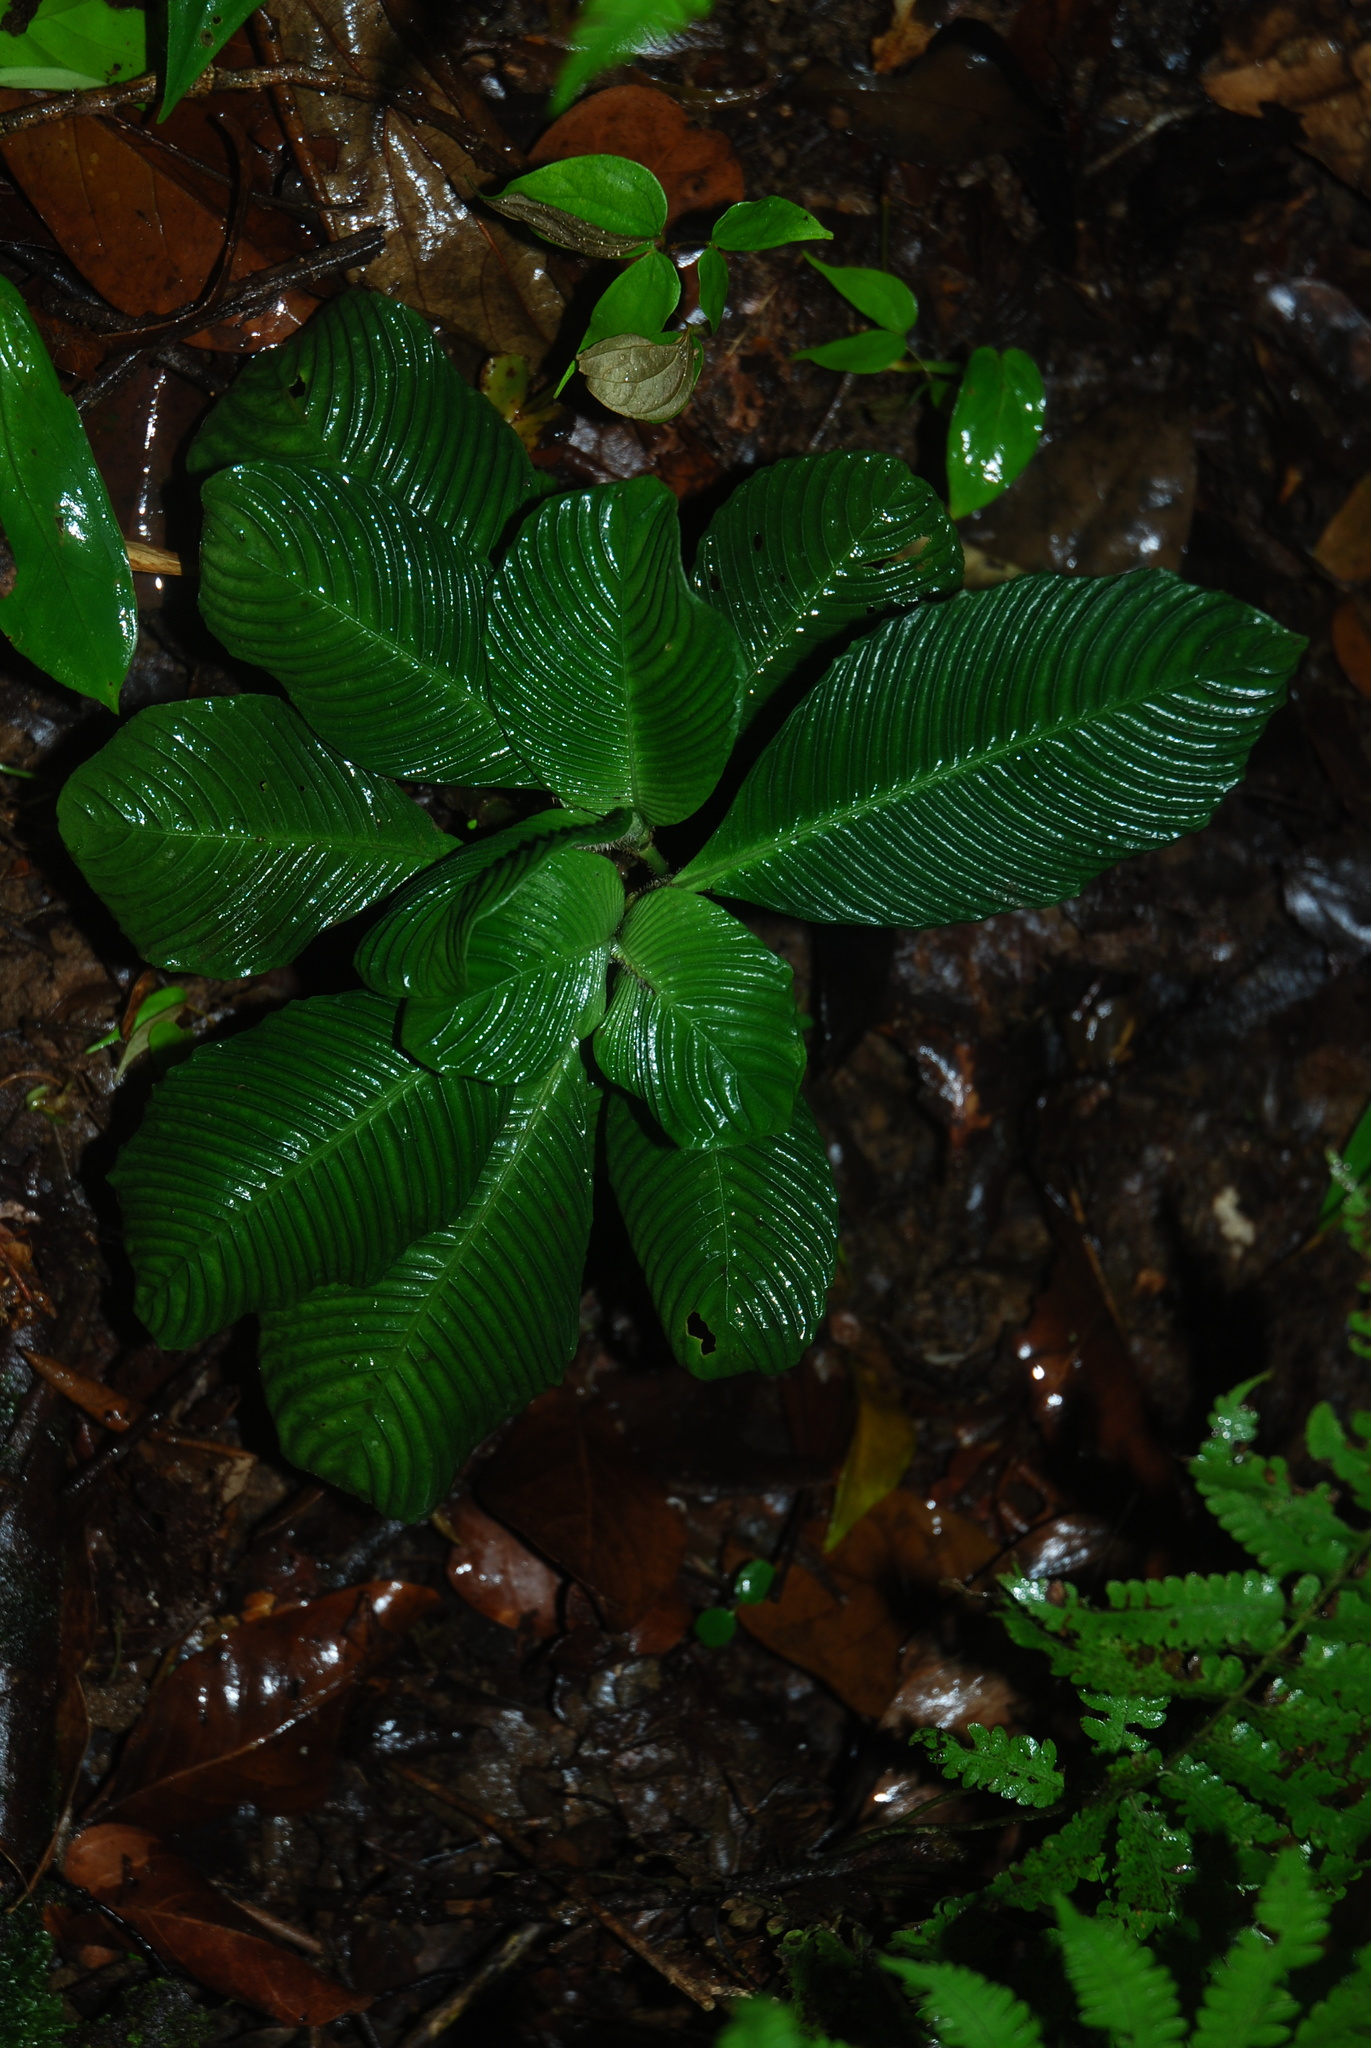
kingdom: Plantae
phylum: Tracheophyta
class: Magnoliopsida
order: Gentianales
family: Rubiaceae
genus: Notopleura
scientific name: Notopleura polyphlebia
